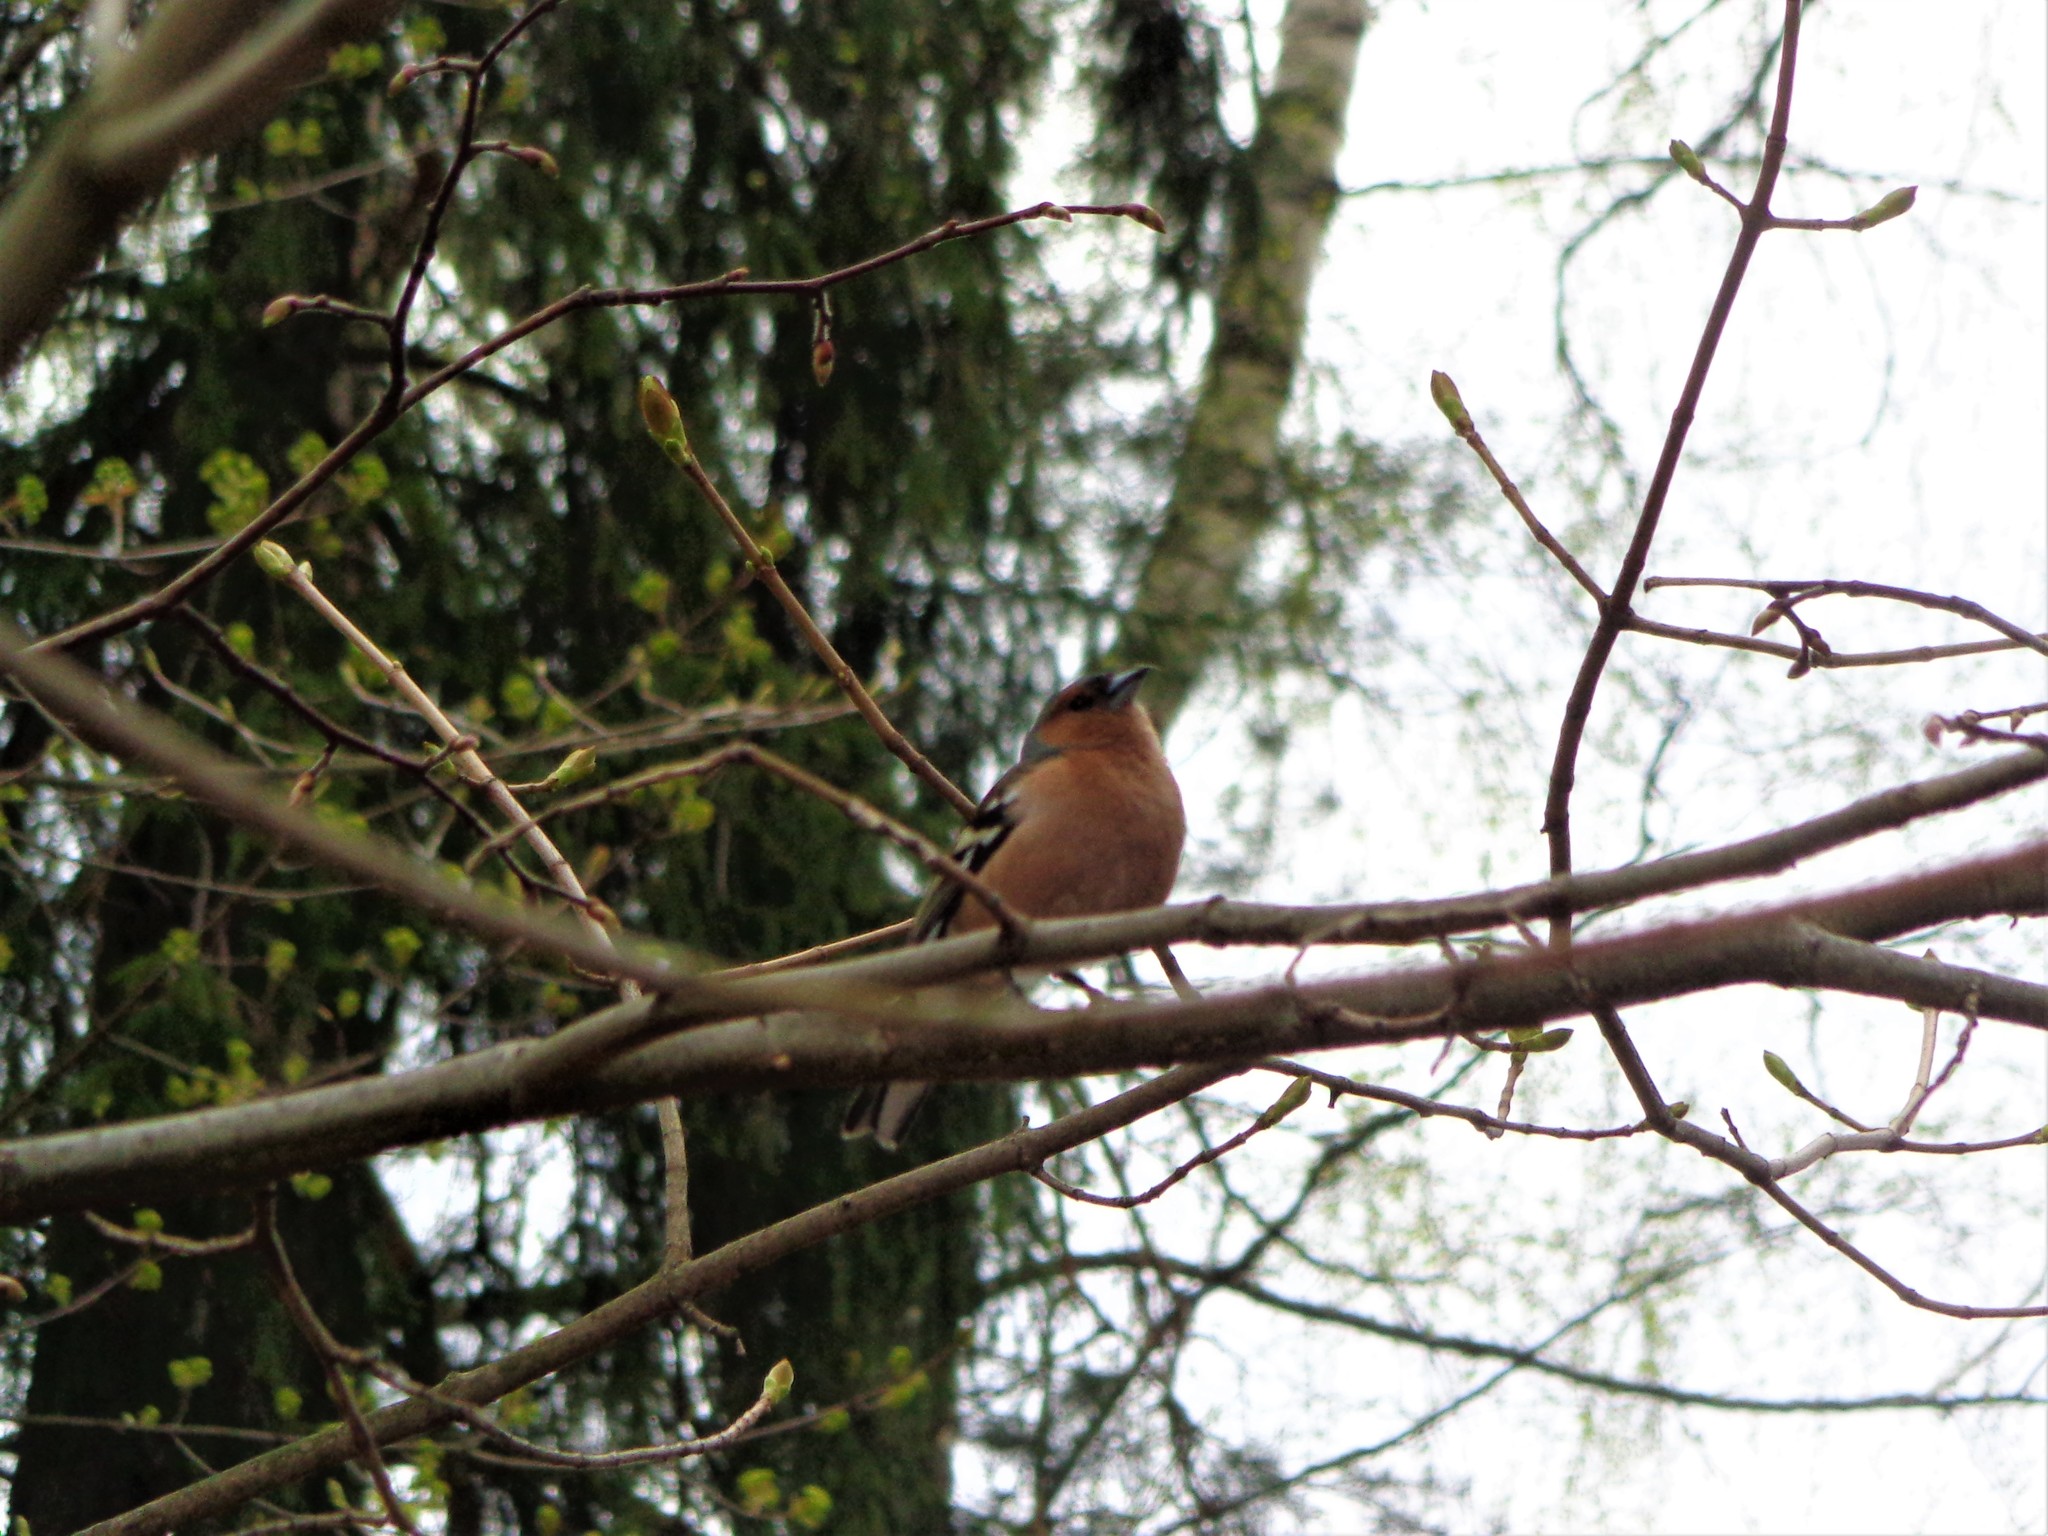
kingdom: Animalia
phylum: Chordata
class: Aves
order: Passeriformes
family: Fringillidae
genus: Fringilla
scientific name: Fringilla coelebs
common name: Common chaffinch
